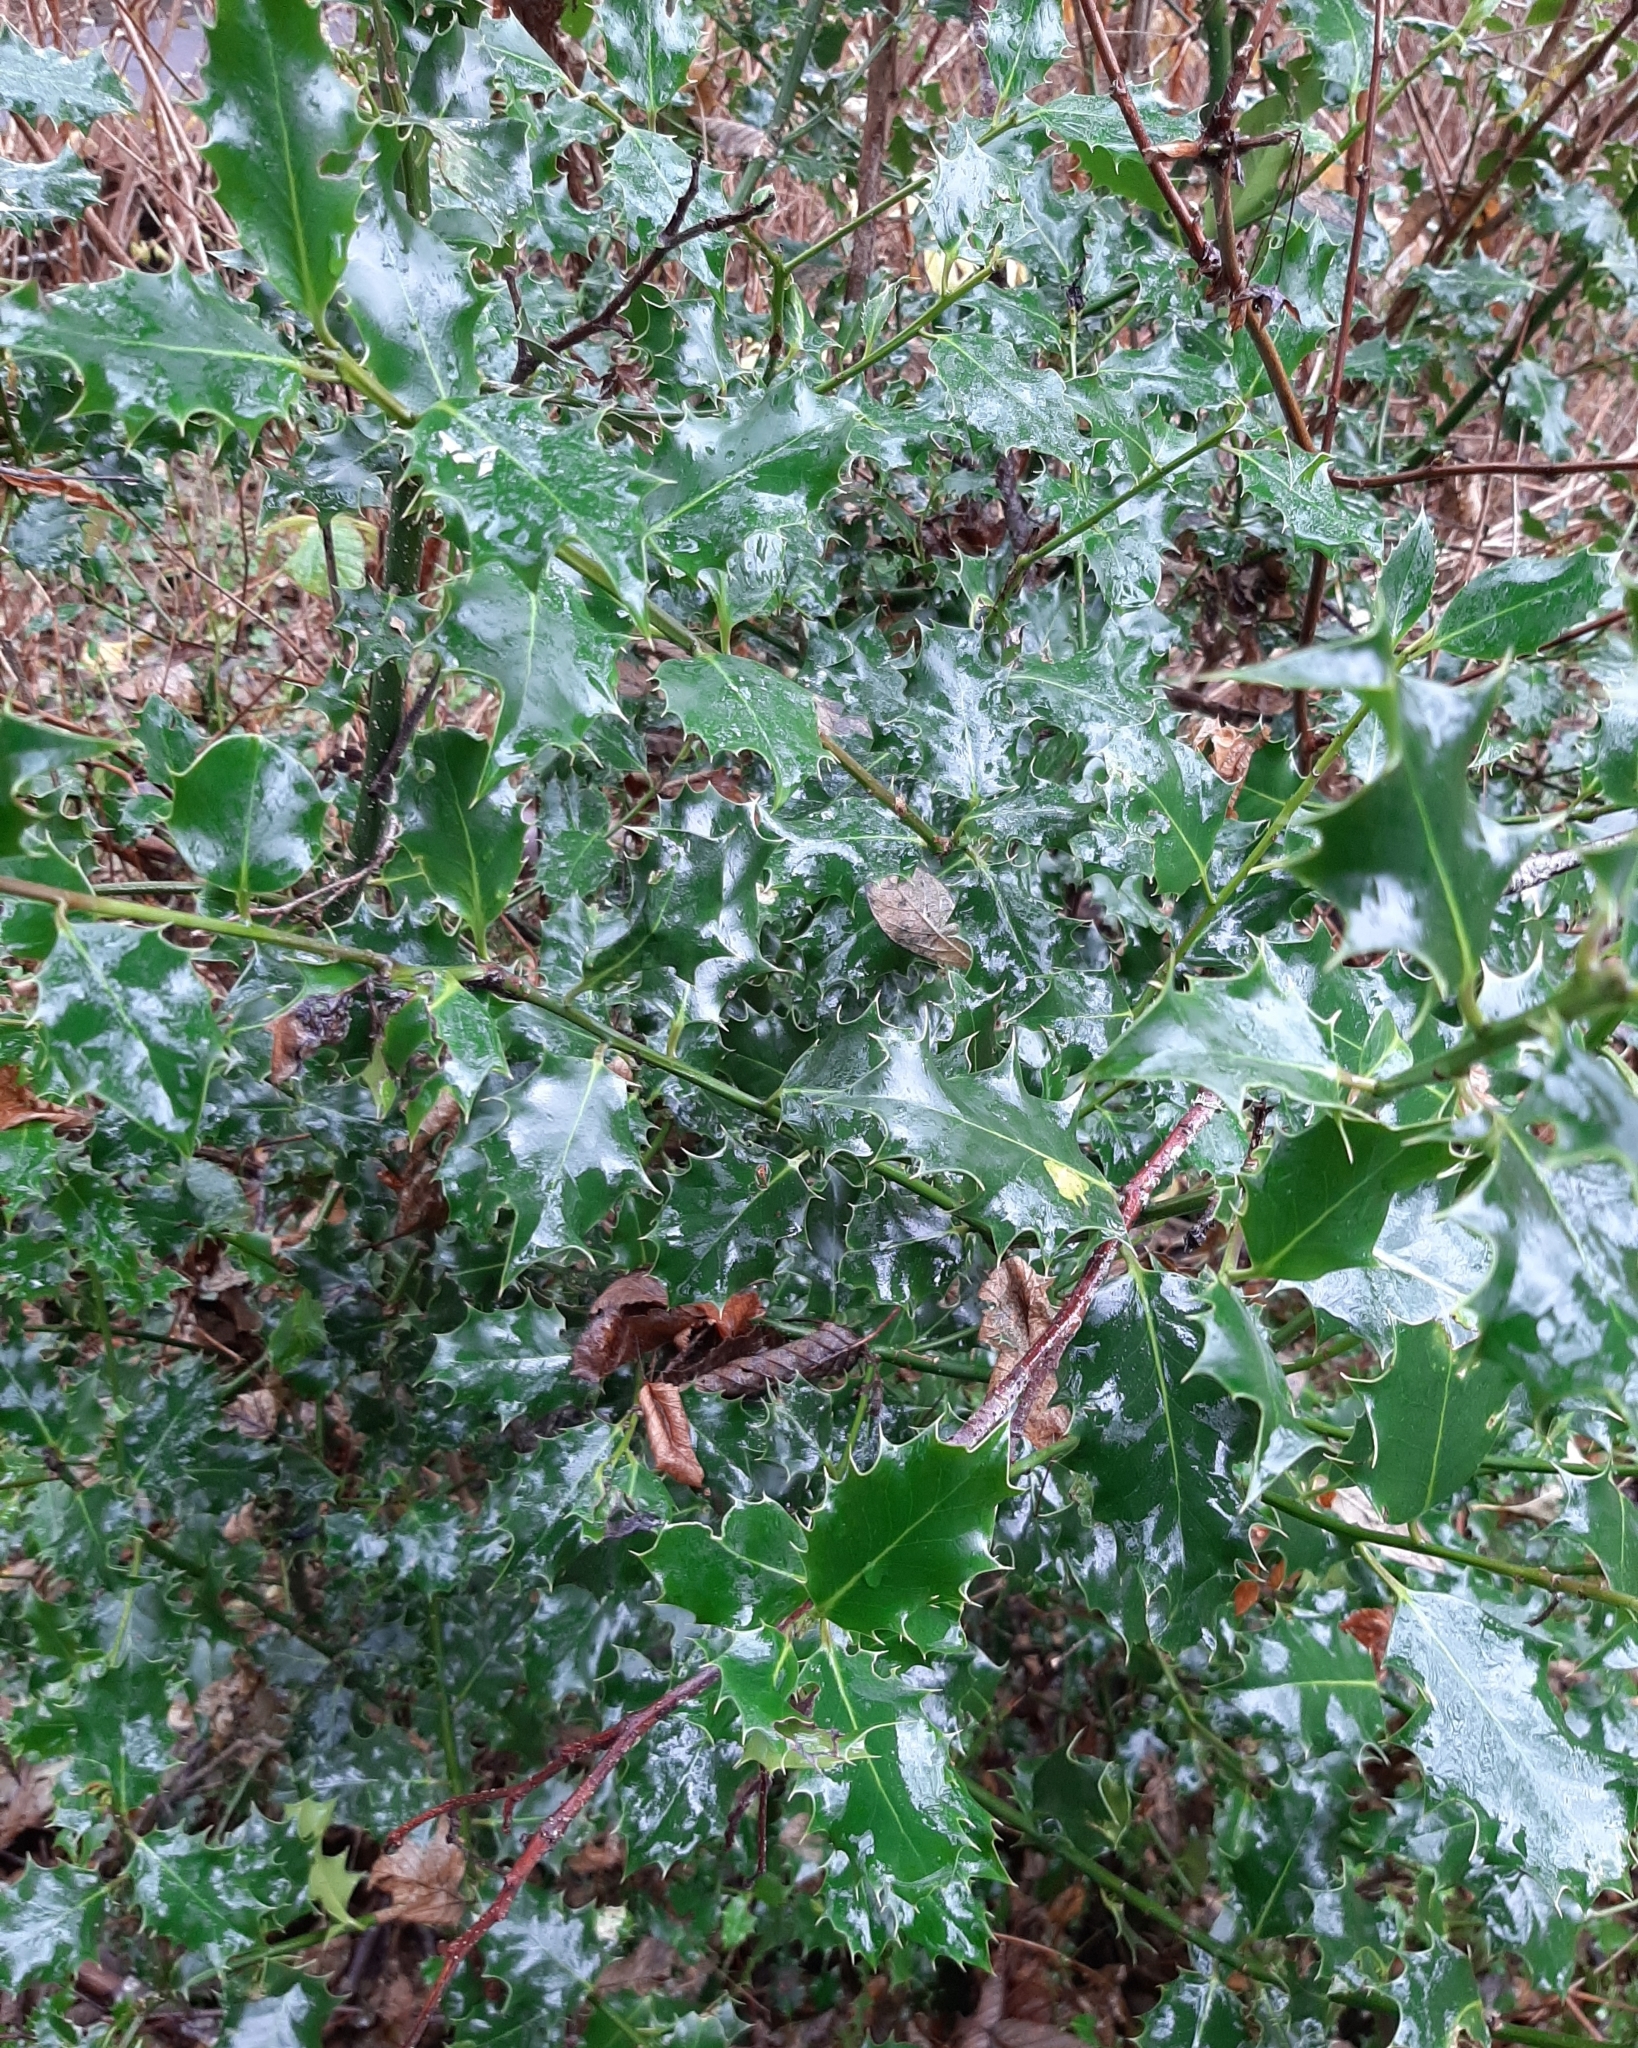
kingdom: Plantae
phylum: Tracheophyta
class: Magnoliopsida
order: Aquifoliales
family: Aquifoliaceae
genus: Ilex
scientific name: Ilex aquifolium
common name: English holly
